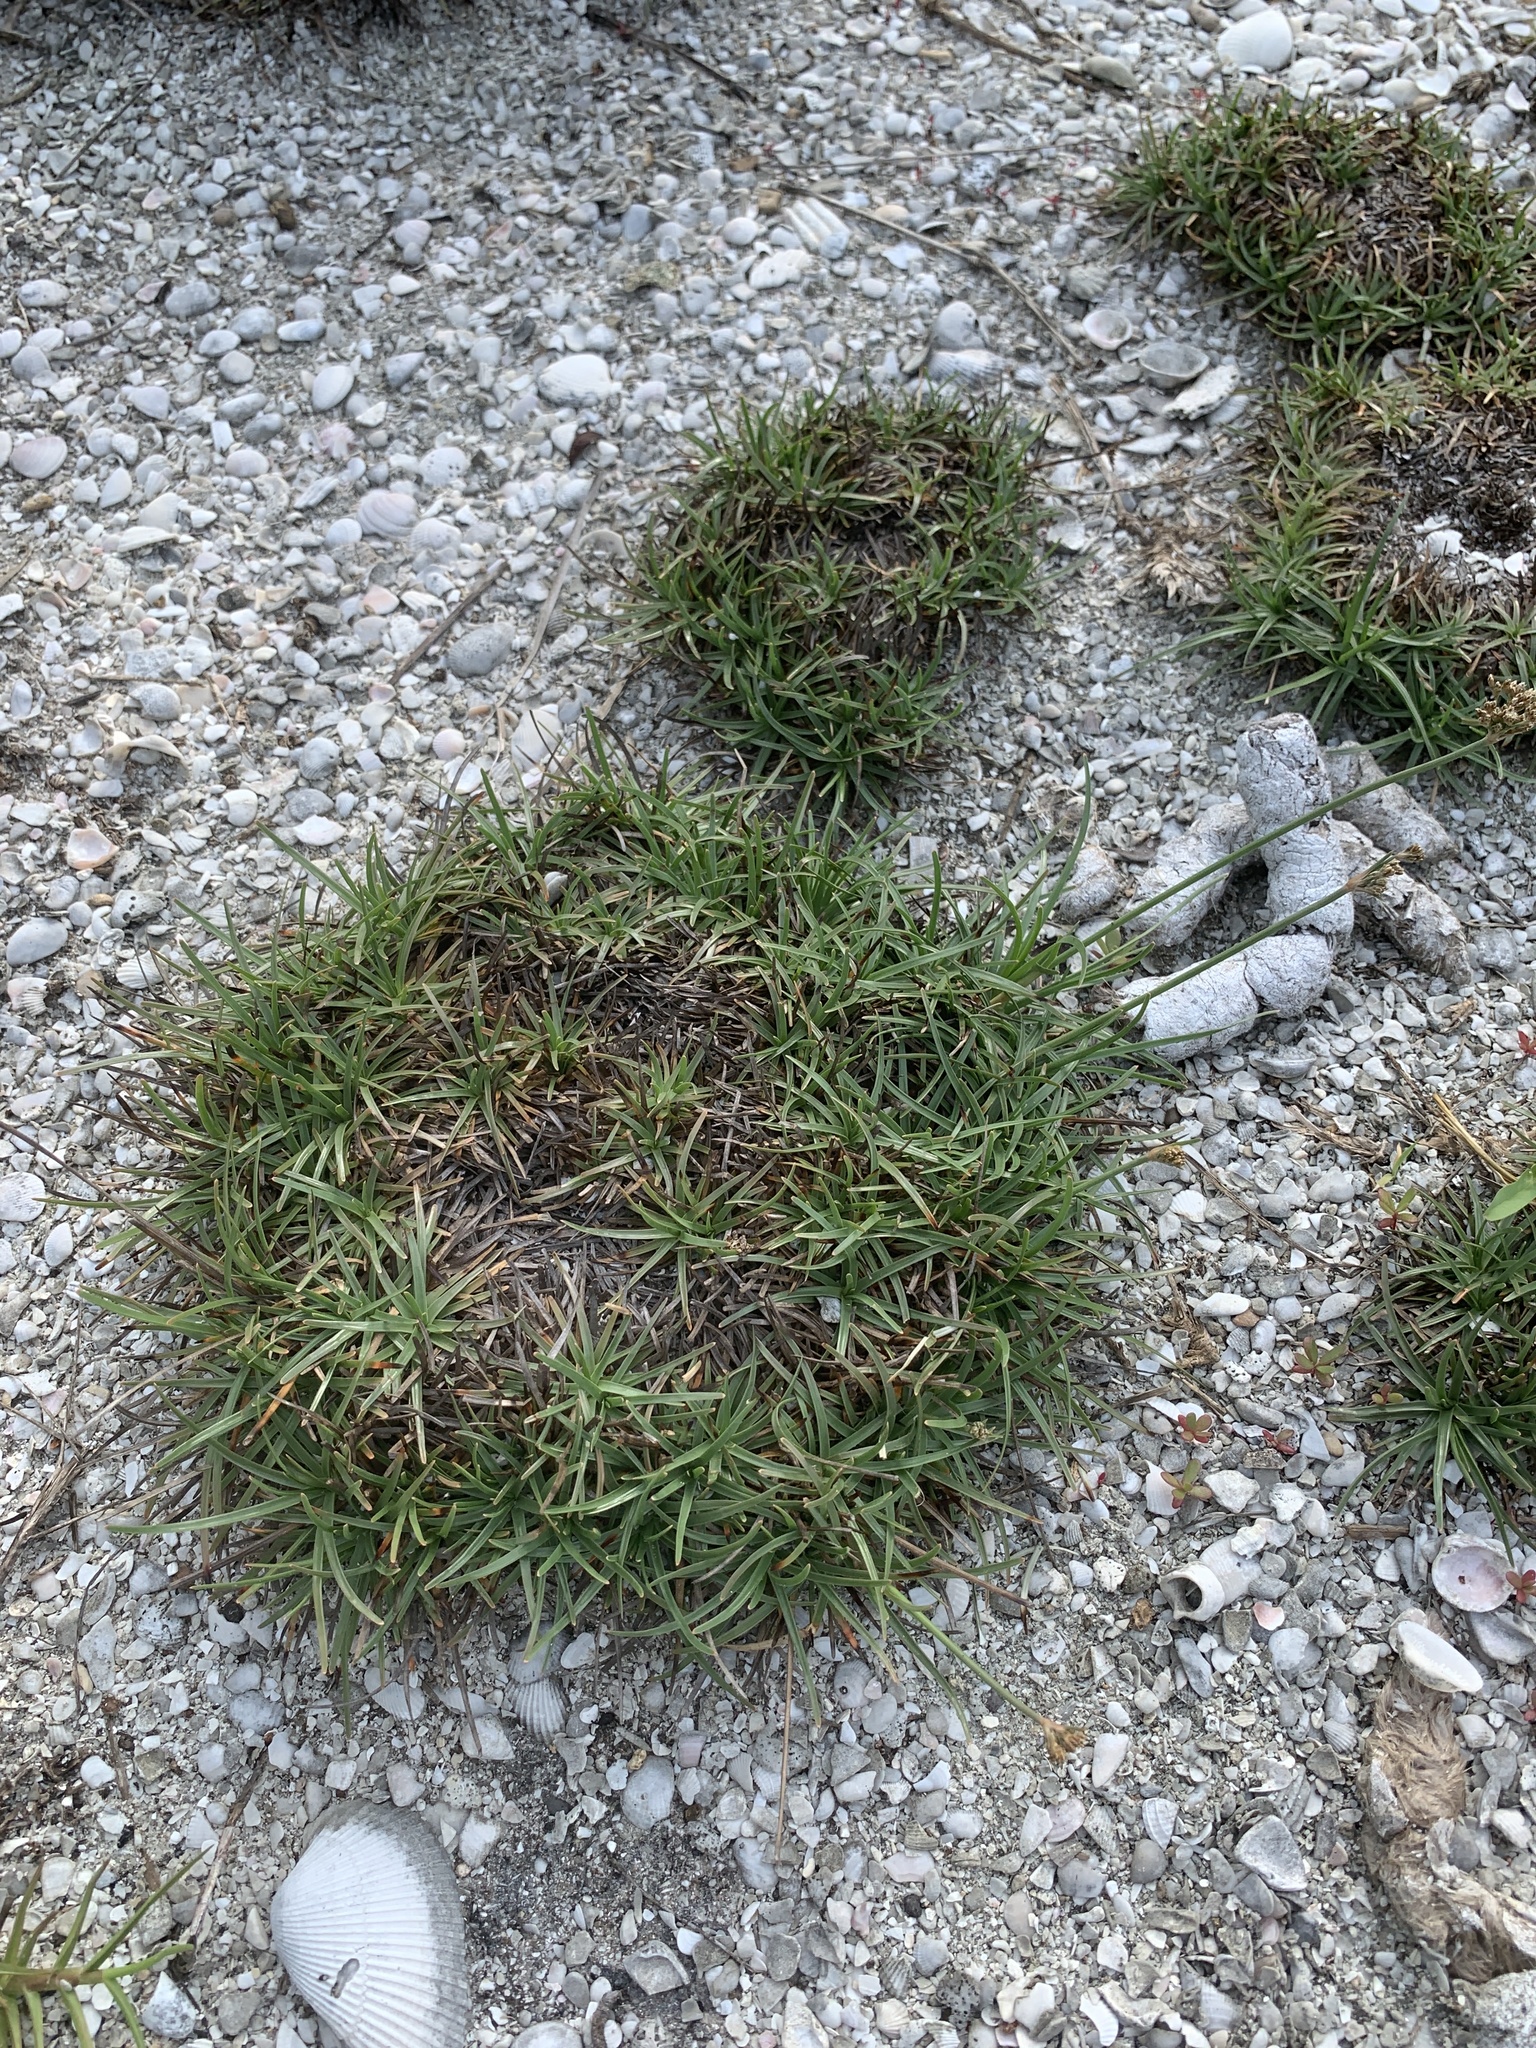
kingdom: Plantae
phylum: Tracheophyta
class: Liliopsida
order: Poales
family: Cyperaceae
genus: Fimbristylis
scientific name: Fimbristylis cymosa
